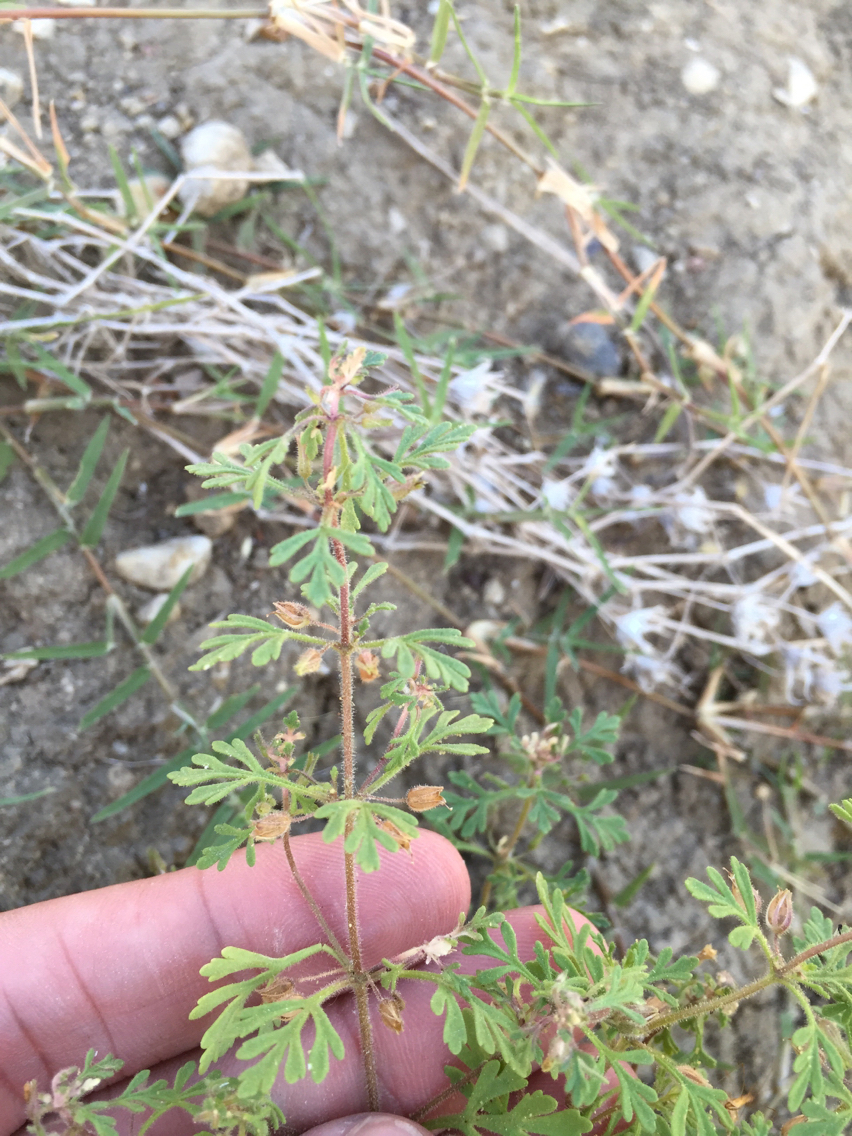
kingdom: Plantae
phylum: Tracheophyta
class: Magnoliopsida
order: Lamiales
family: Plantaginaceae
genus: Leucospora
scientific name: Leucospora multifida
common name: Narrow-leaf paleseed
